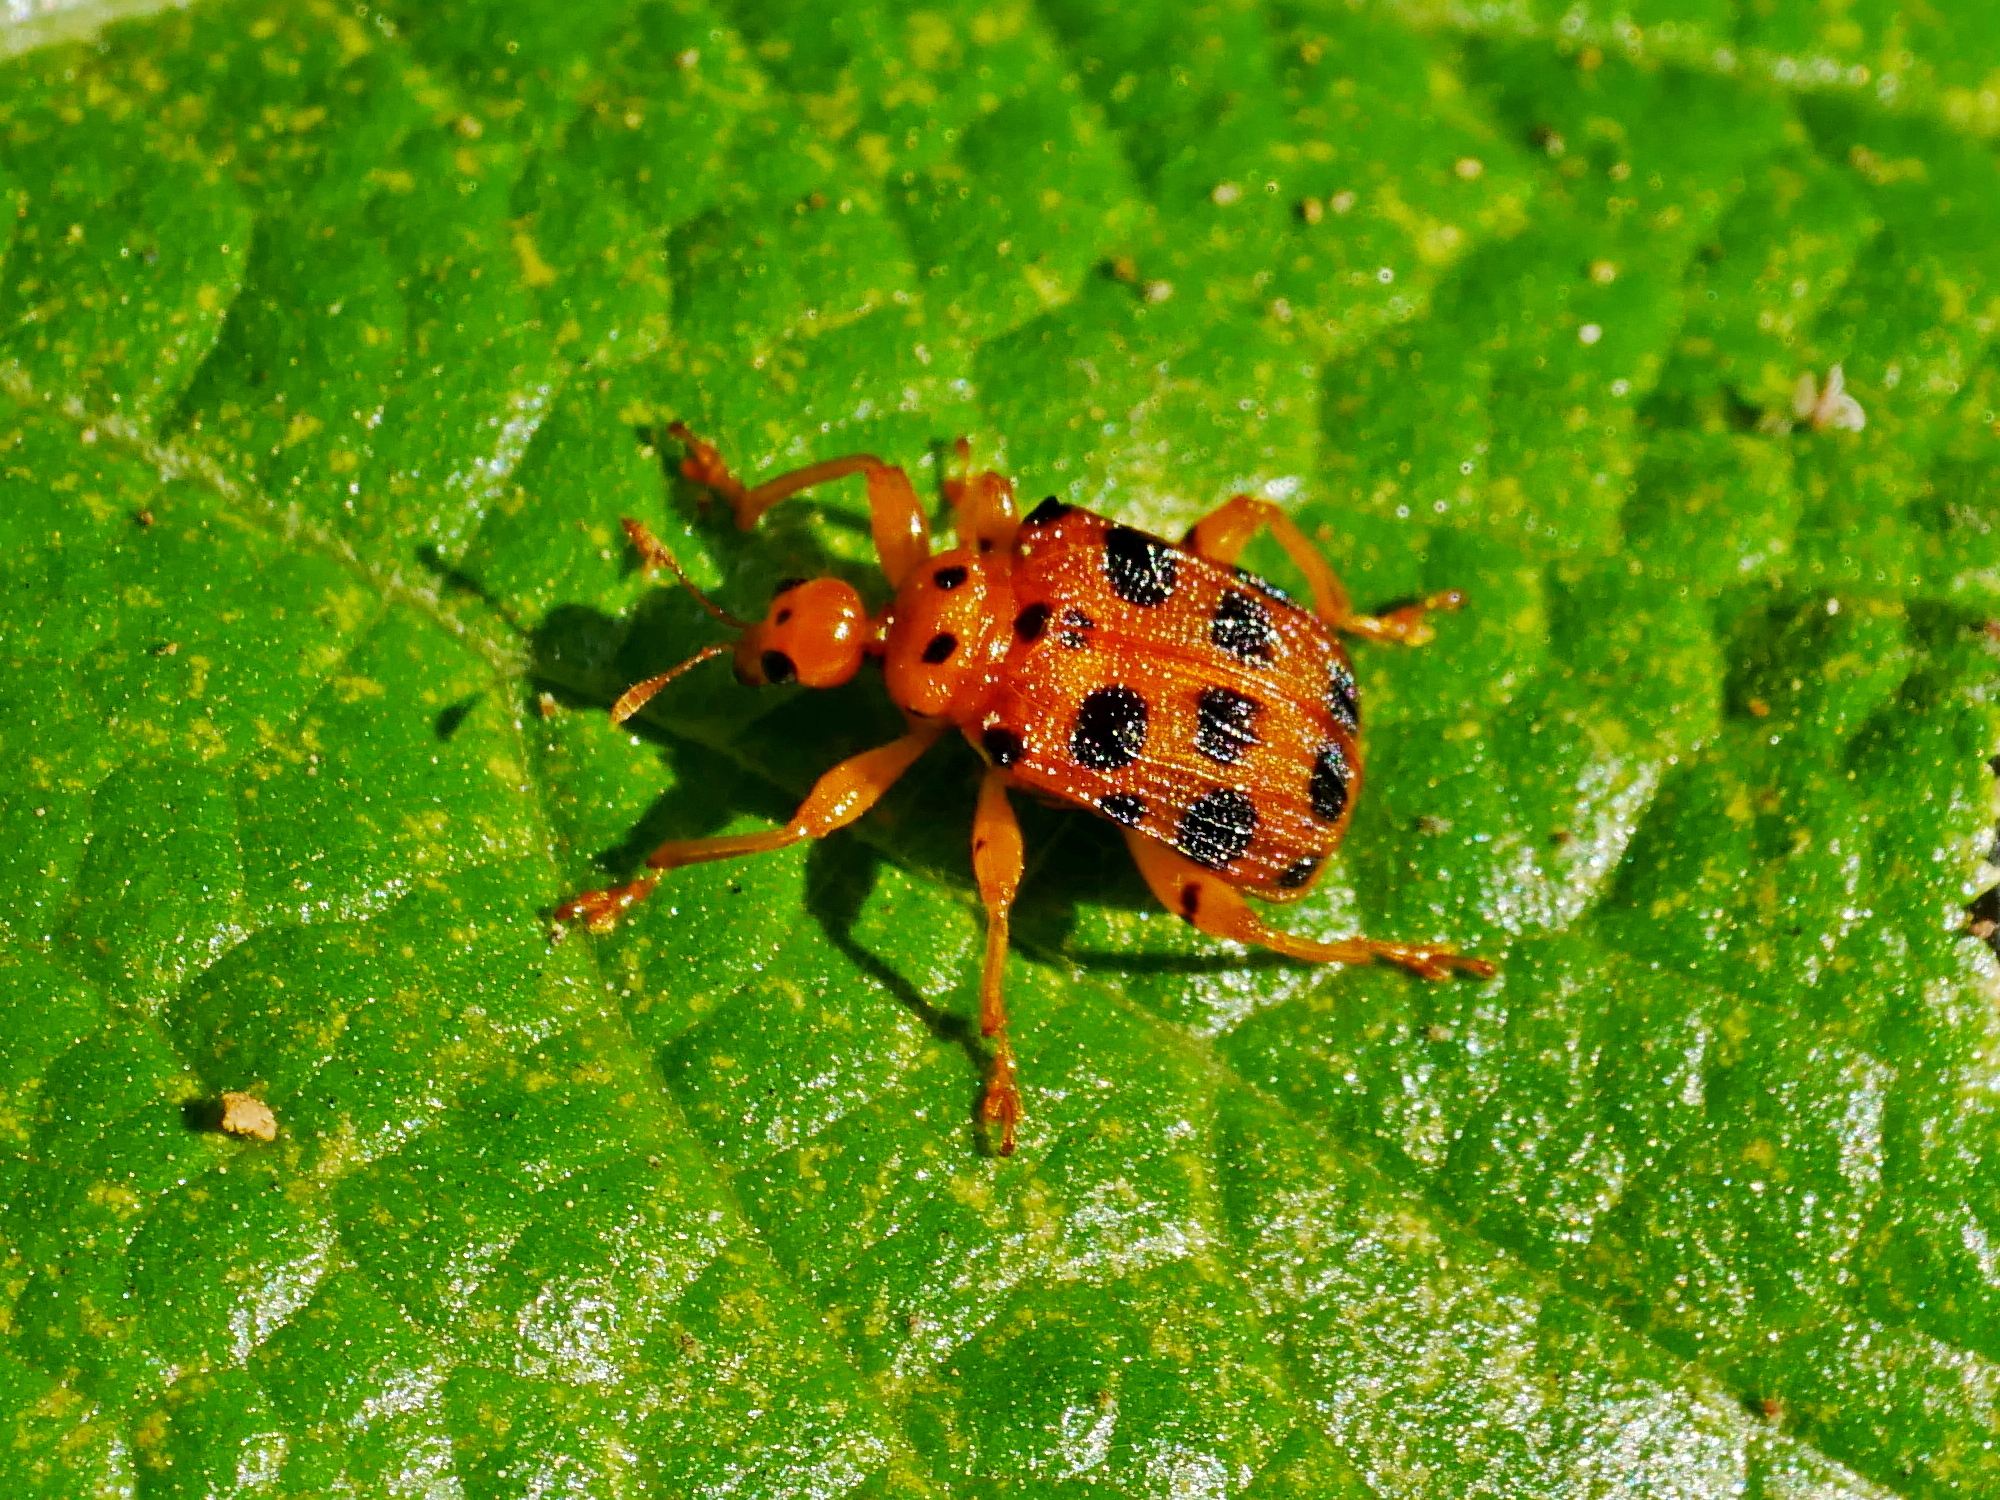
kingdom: Animalia
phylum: Arthropoda
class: Insecta
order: Coleoptera
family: Attelabidae
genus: Hoplapoderus
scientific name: Hoplapoderus pardaloides
